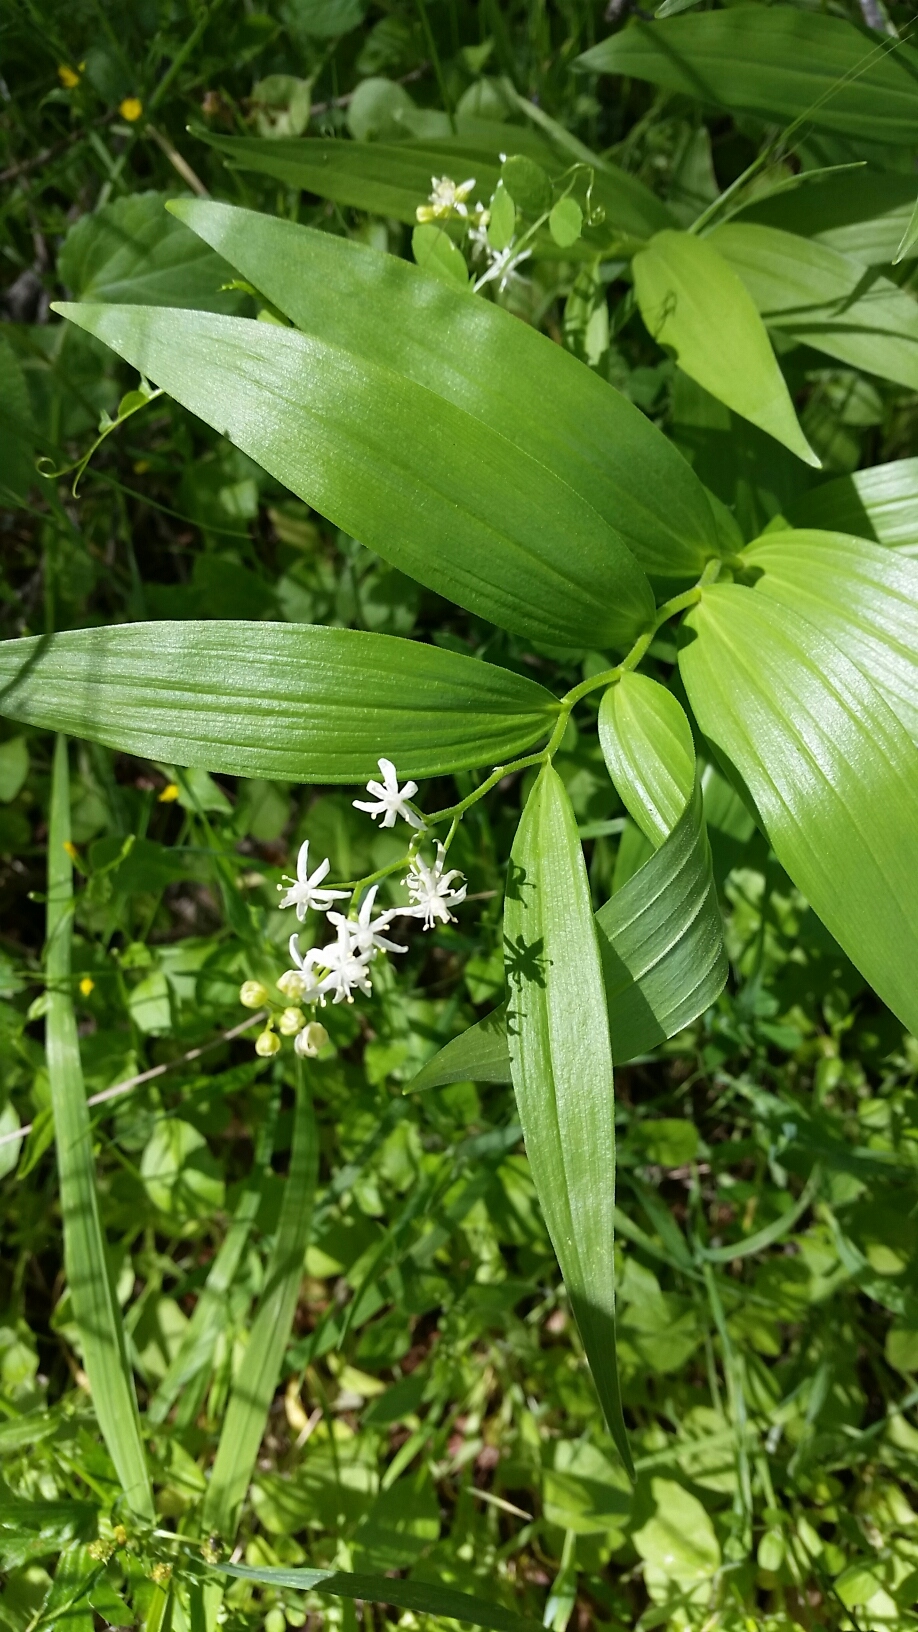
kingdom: Plantae
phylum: Tracheophyta
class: Liliopsida
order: Asparagales
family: Asparagaceae
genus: Maianthemum
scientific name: Maianthemum stellatum
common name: Little false solomon's seal
